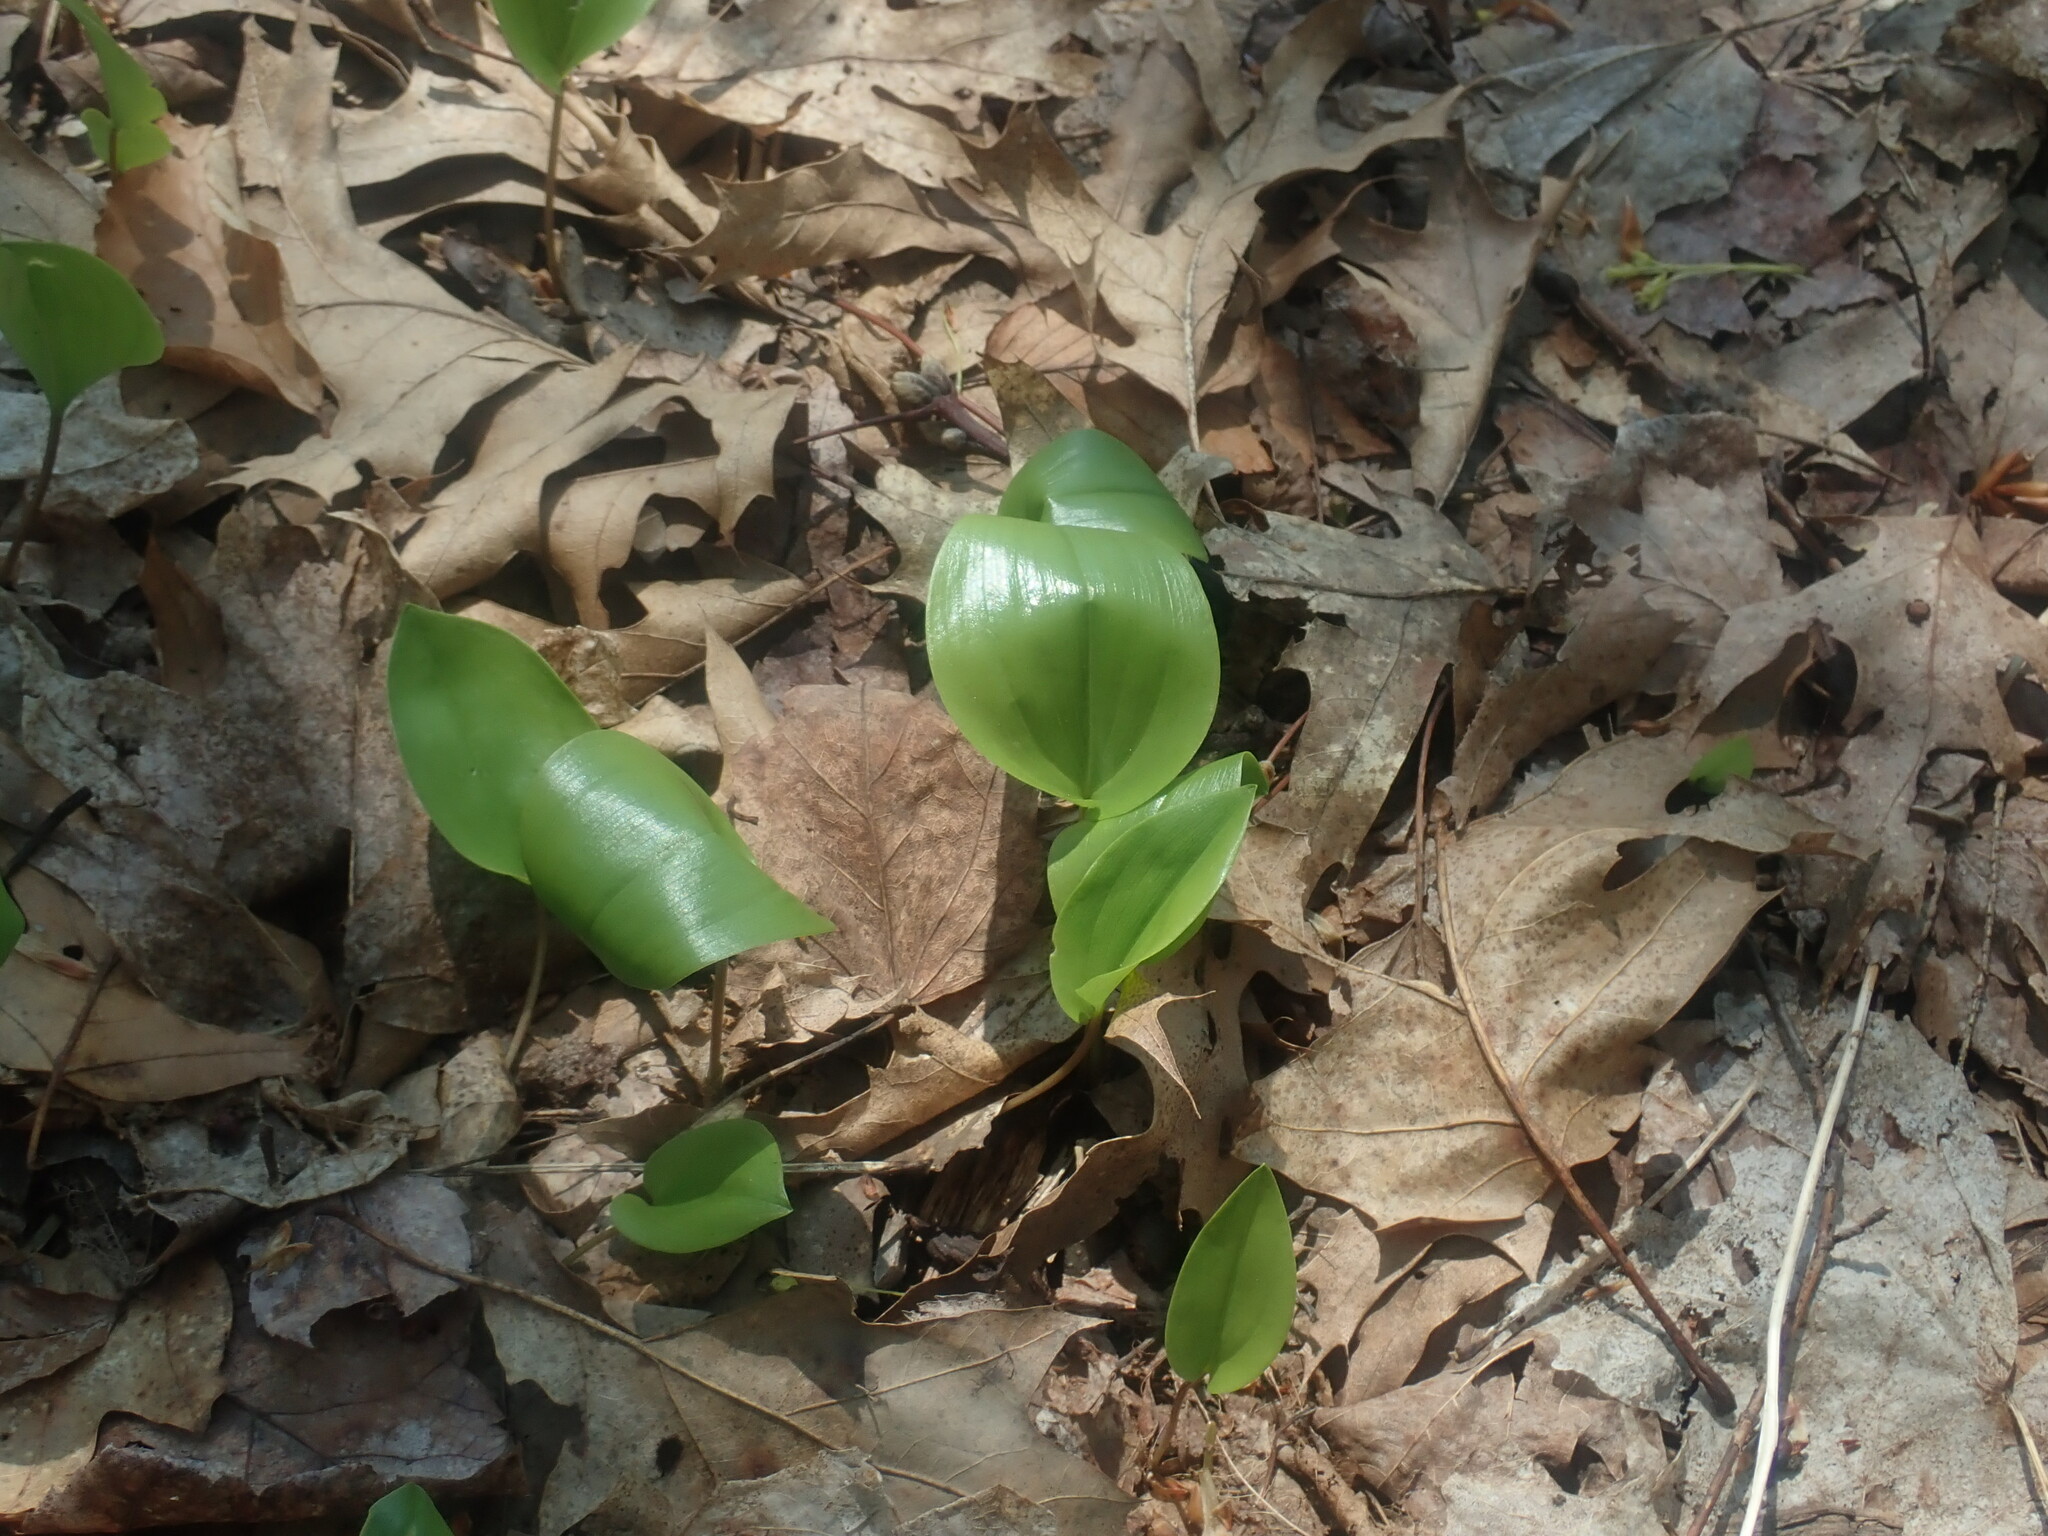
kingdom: Plantae
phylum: Tracheophyta
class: Liliopsida
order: Asparagales
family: Asparagaceae
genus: Maianthemum
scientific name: Maianthemum canadense
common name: False lily-of-the-valley
